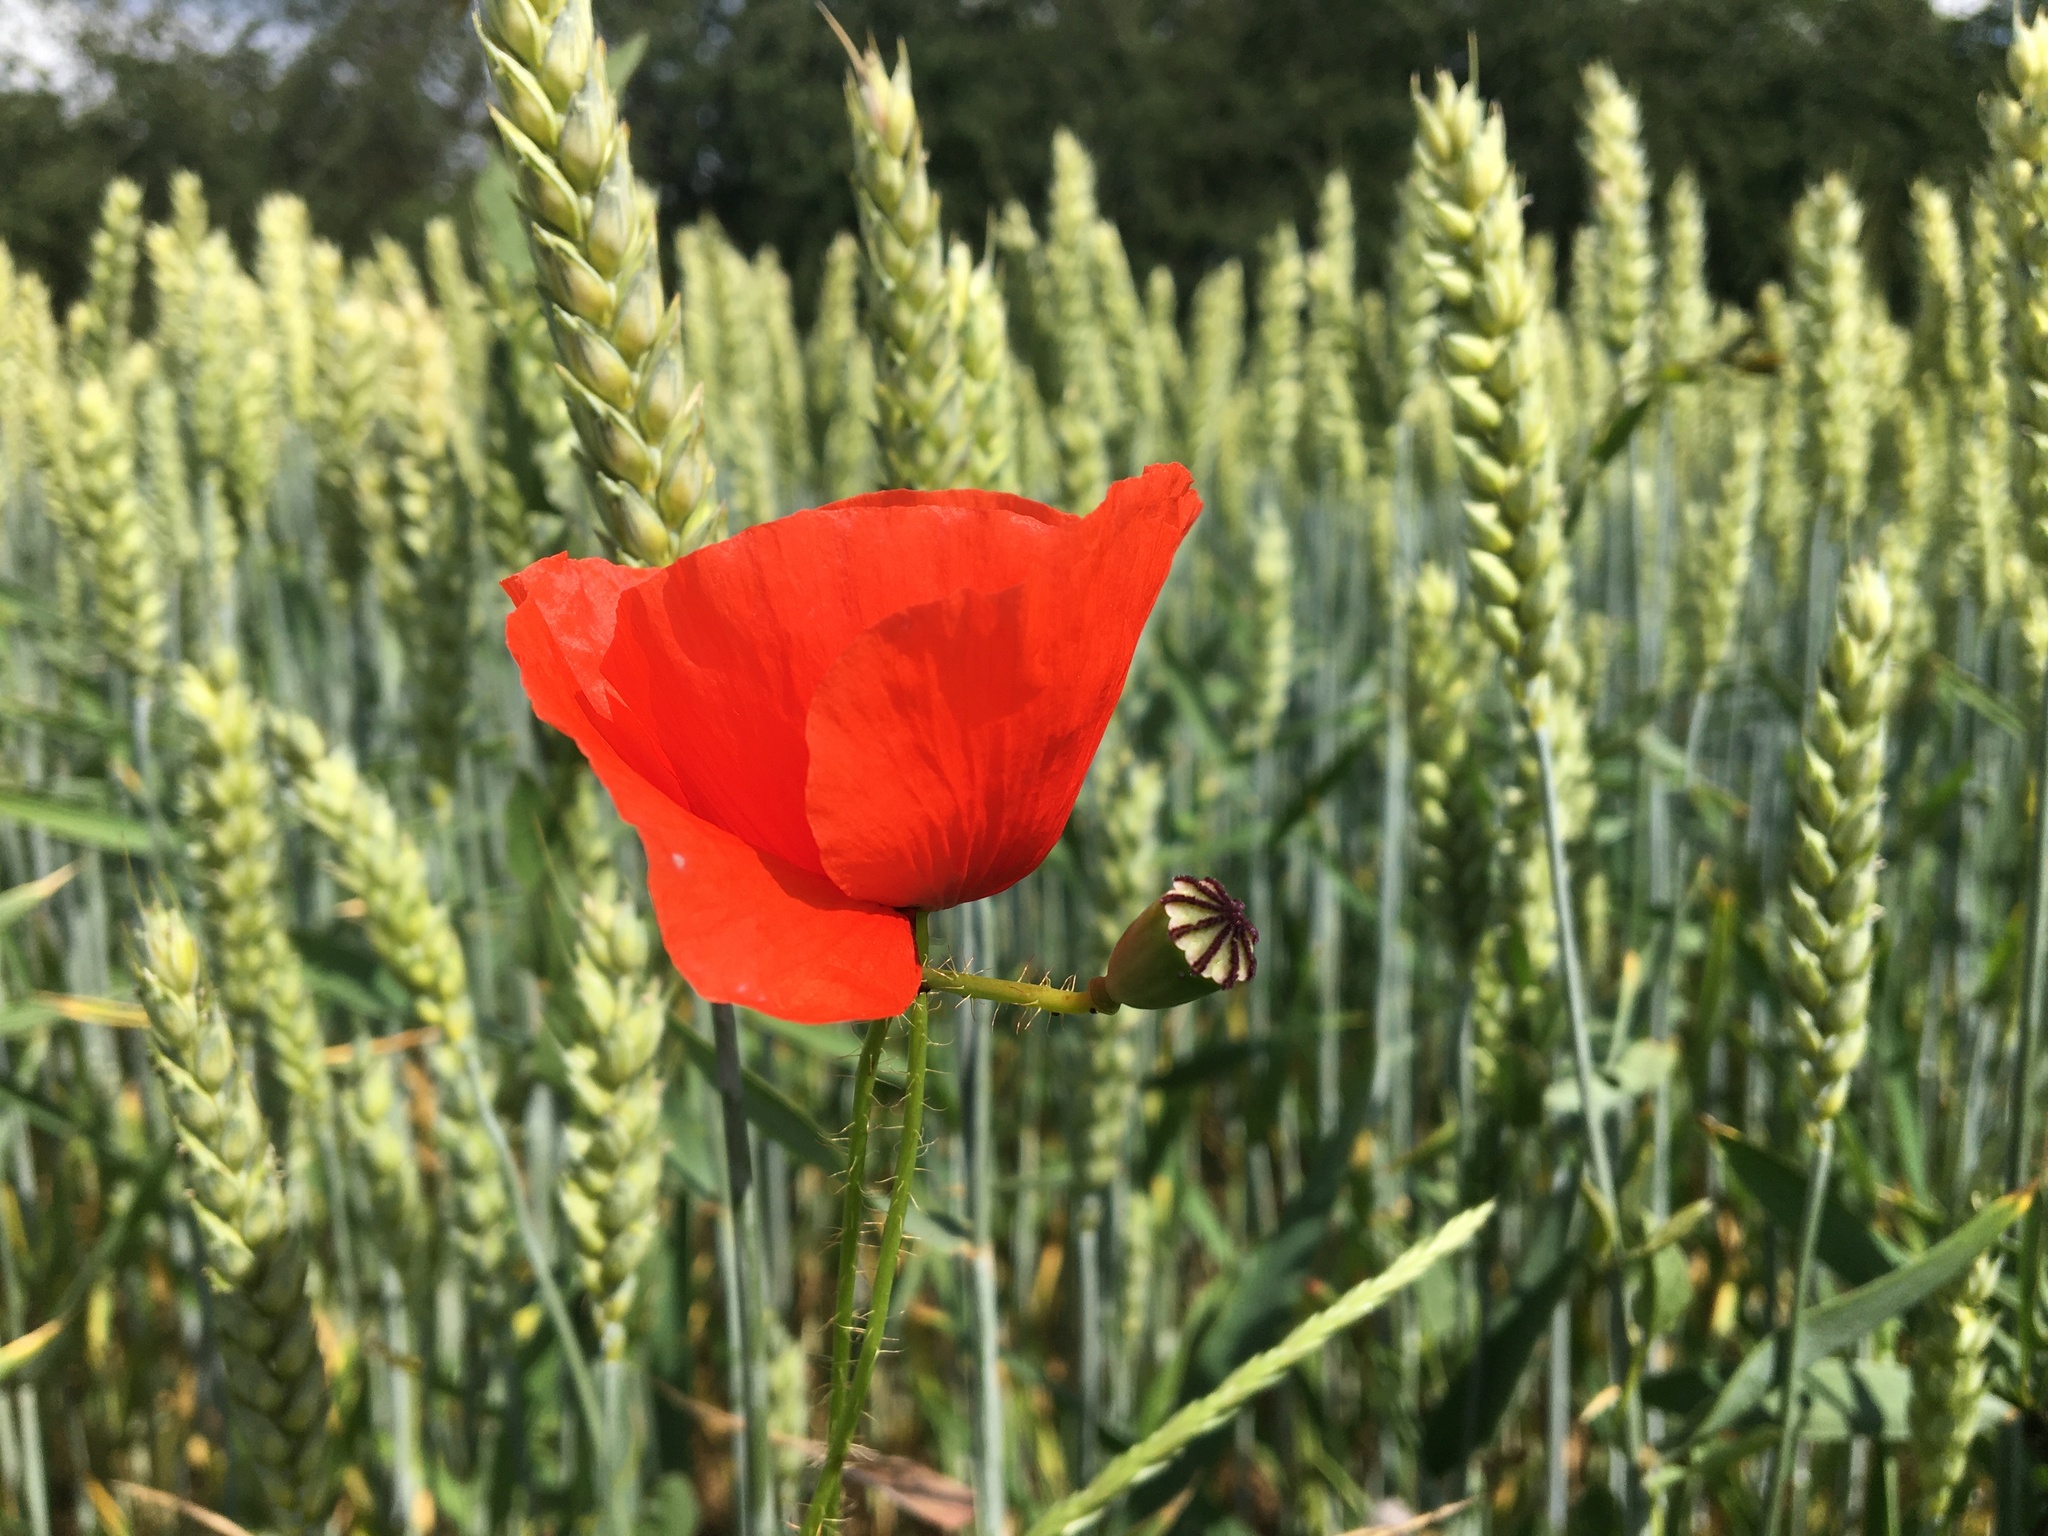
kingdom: Plantae
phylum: Tracheophyta
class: Magnoliopsida
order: Ranunculales
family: Papaveraceae
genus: Papaver
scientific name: Papaver rhoeas
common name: Corn poppy
